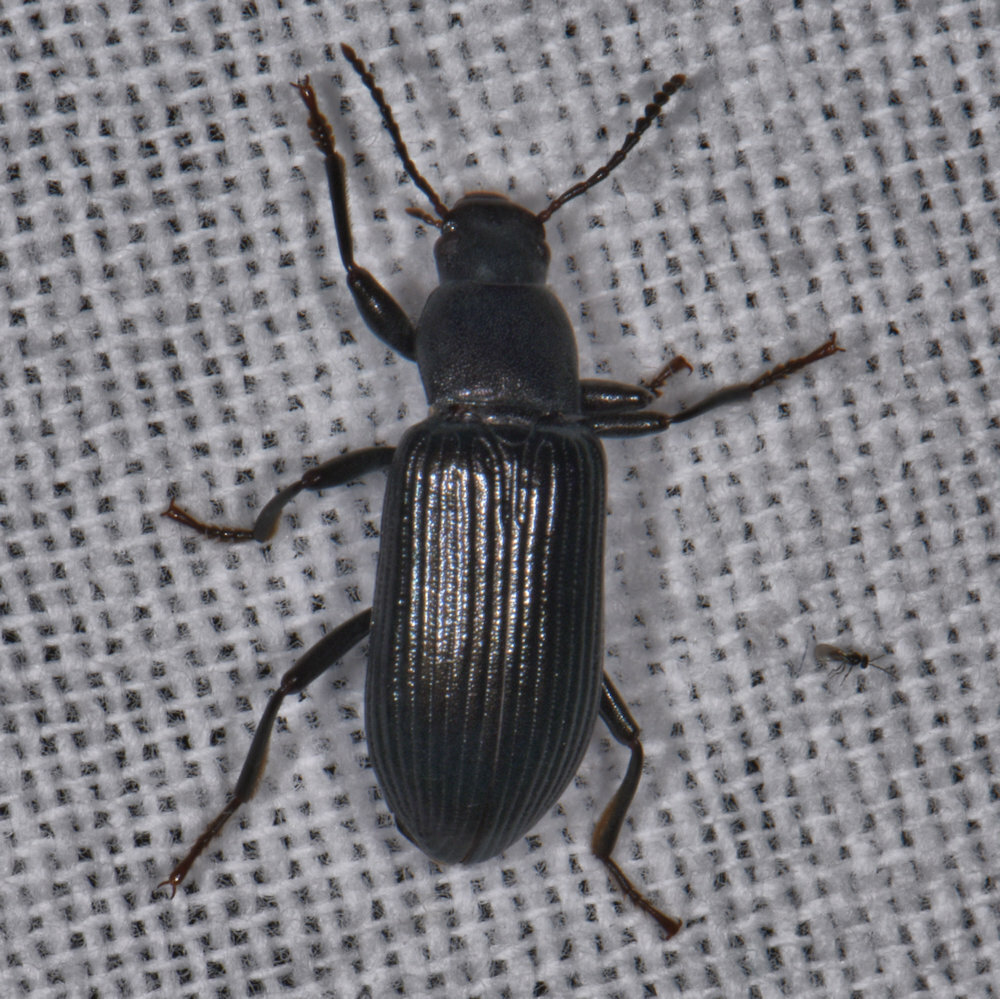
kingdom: Animalia
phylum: Arthropoda
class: Insecta
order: Coleoptera
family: Tenebrionidae
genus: Xylopinus
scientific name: Xylopinus saperdoides
